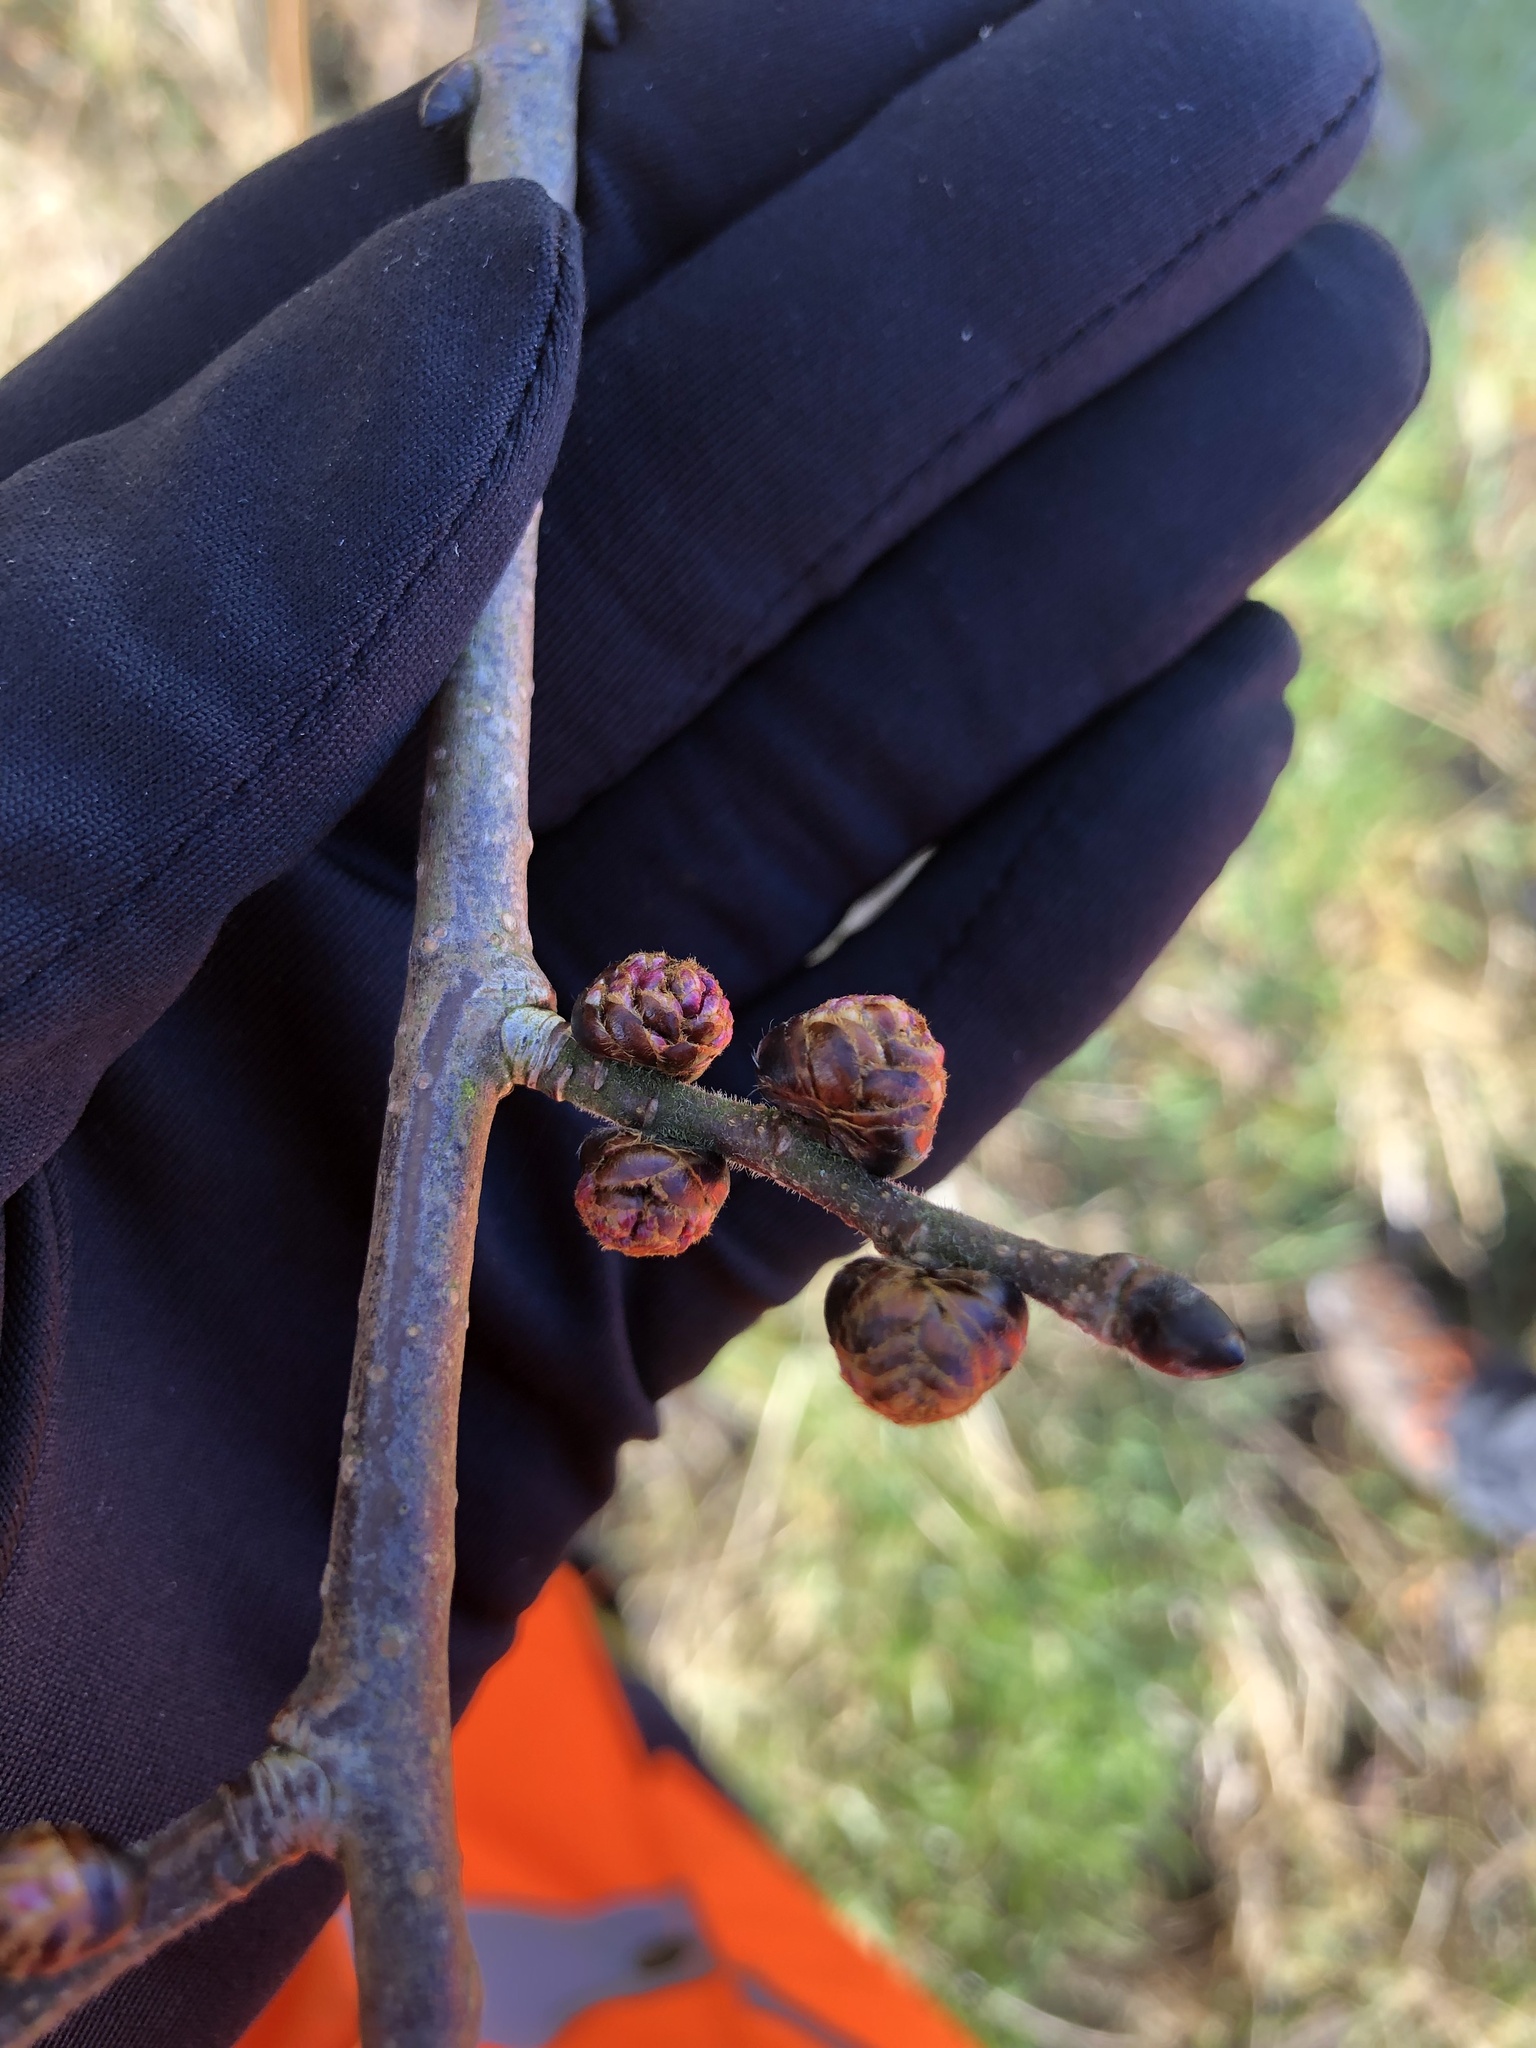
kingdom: Plantae
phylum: Tracheophyta
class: Magnoliopsida
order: Rosales
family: Ulmaceae
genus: Ulmus
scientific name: Ulmus glabra
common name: Wych elm
